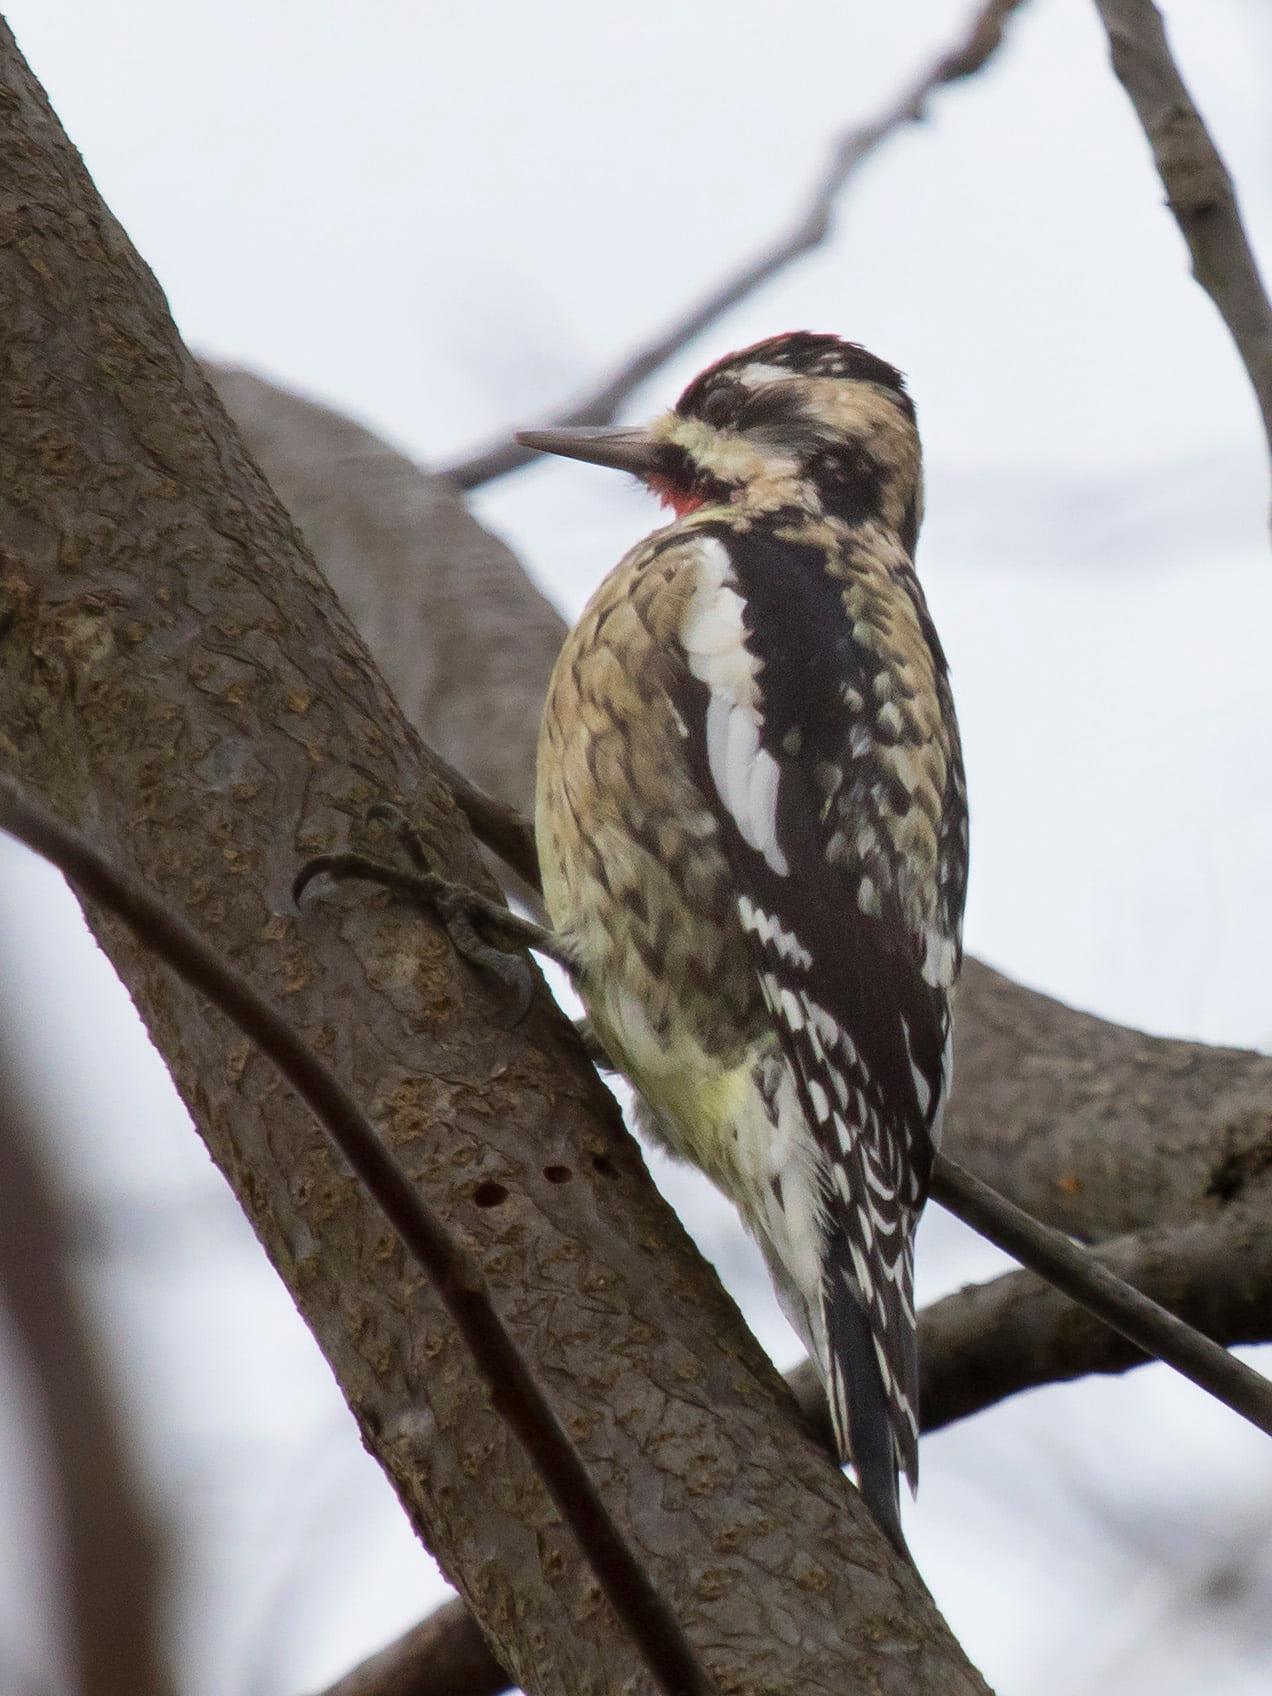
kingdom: Animalia
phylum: Chordata
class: Aves
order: Piciformes
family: Picidae
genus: Sphyrapicus
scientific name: Sphyrapicus varius
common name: Yellow-bellied sapsucker
